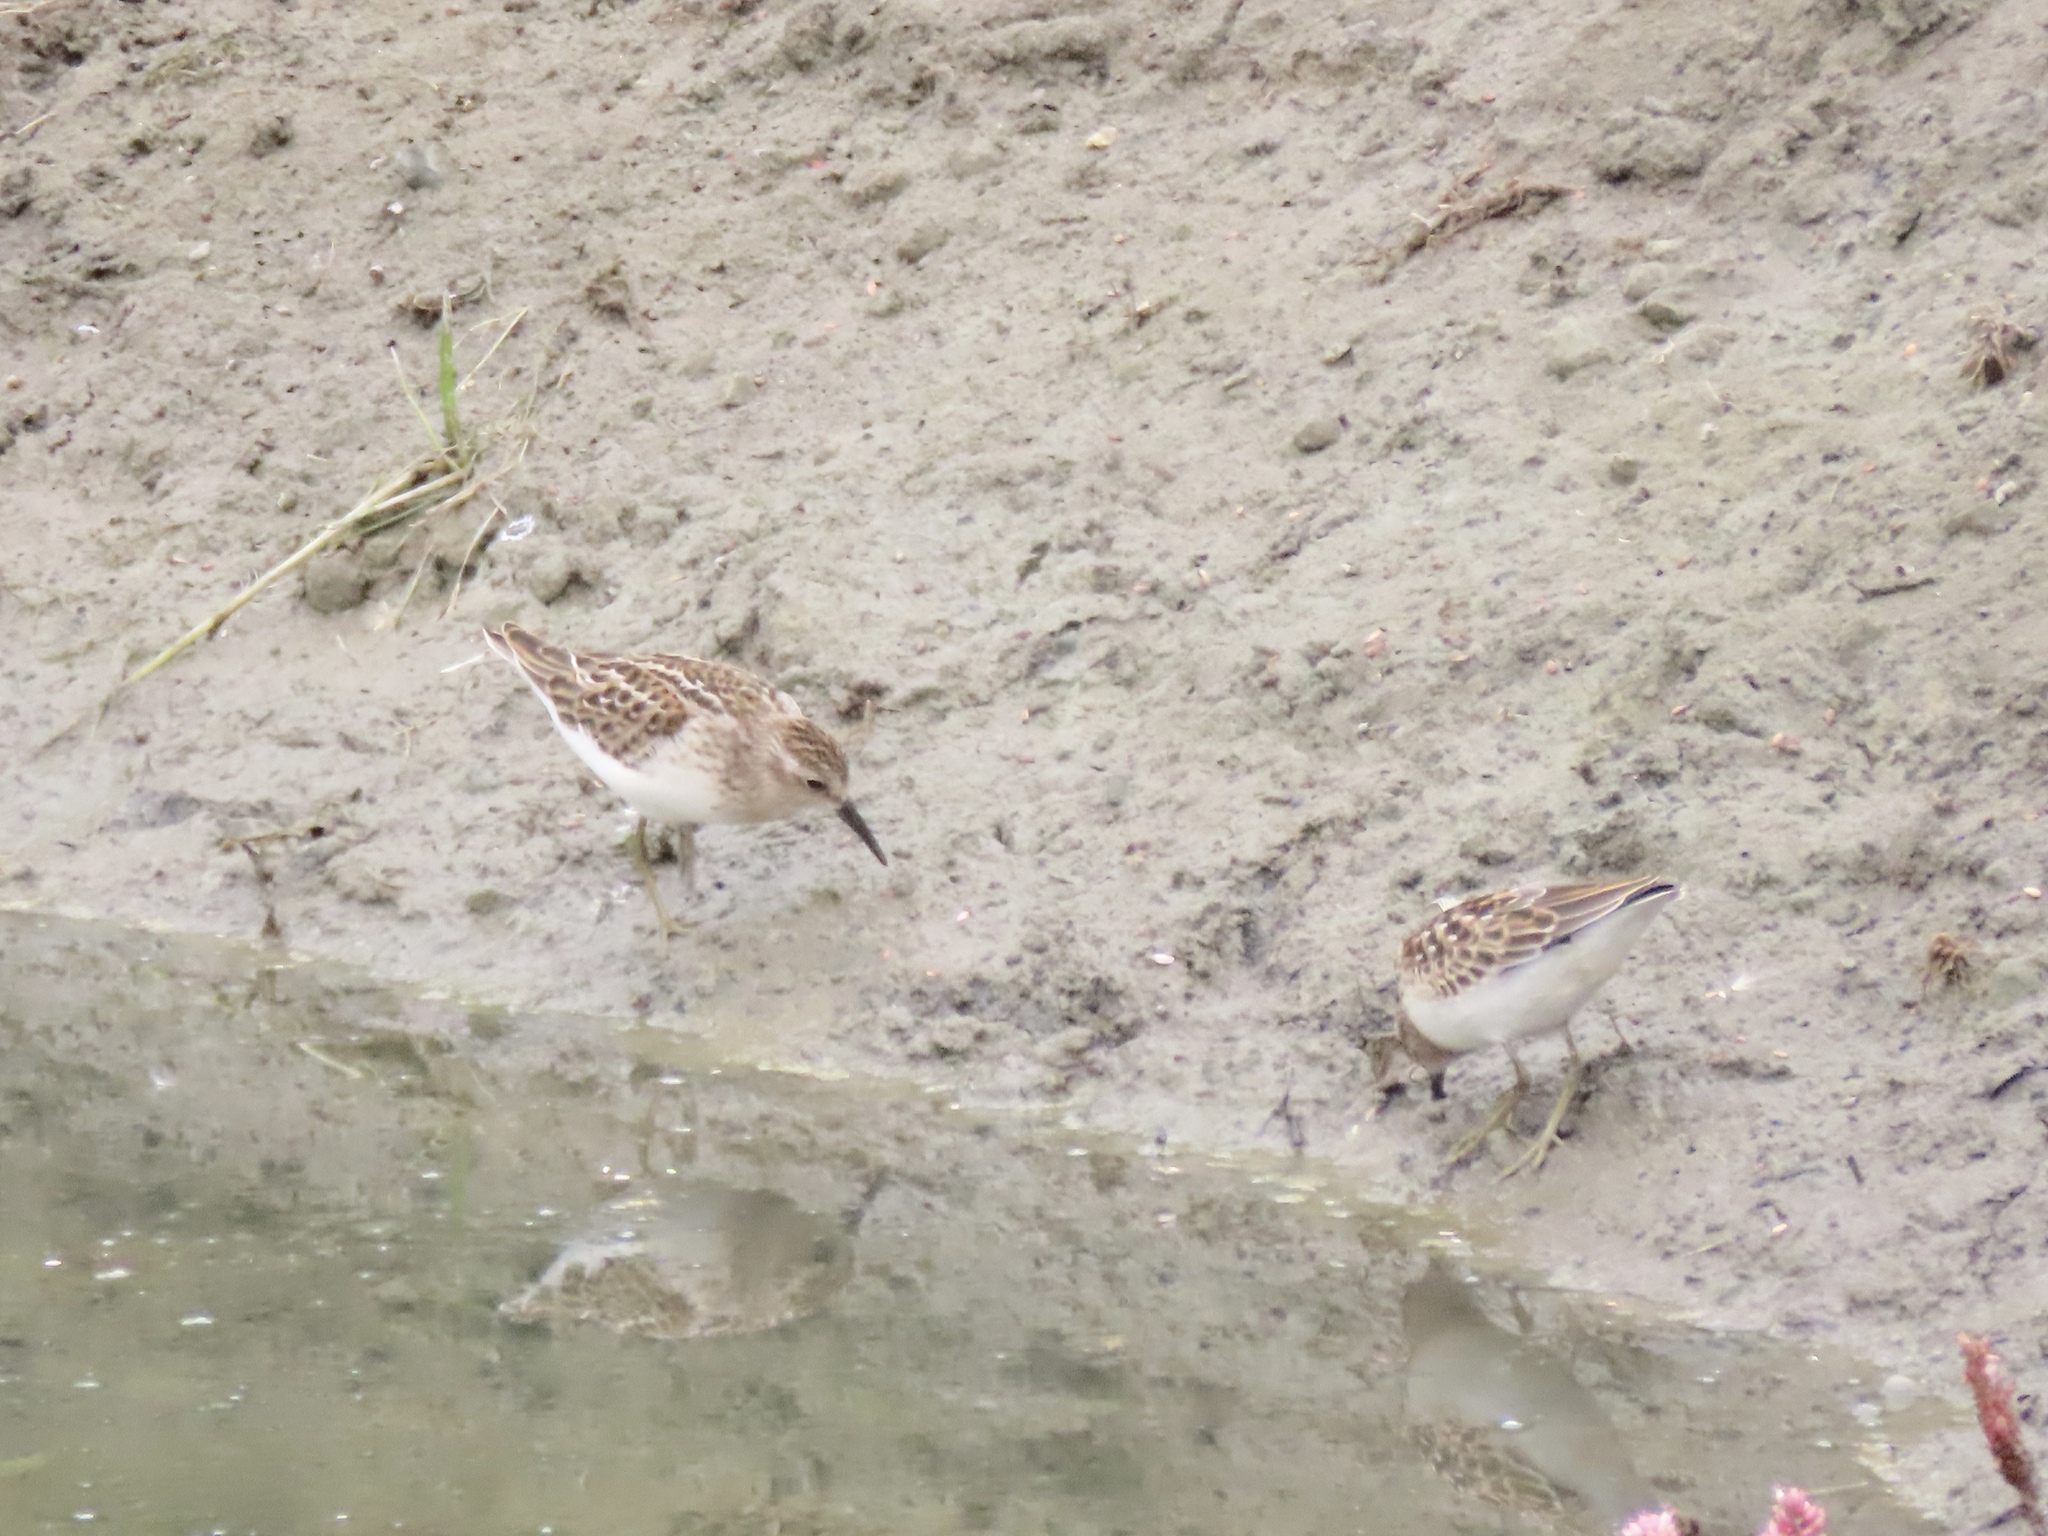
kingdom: Animalia
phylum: Chordata
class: Aves
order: Charadriiformes
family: Scolopacidae
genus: Calidris
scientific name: Calidris minutilla
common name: Least sandpiper
